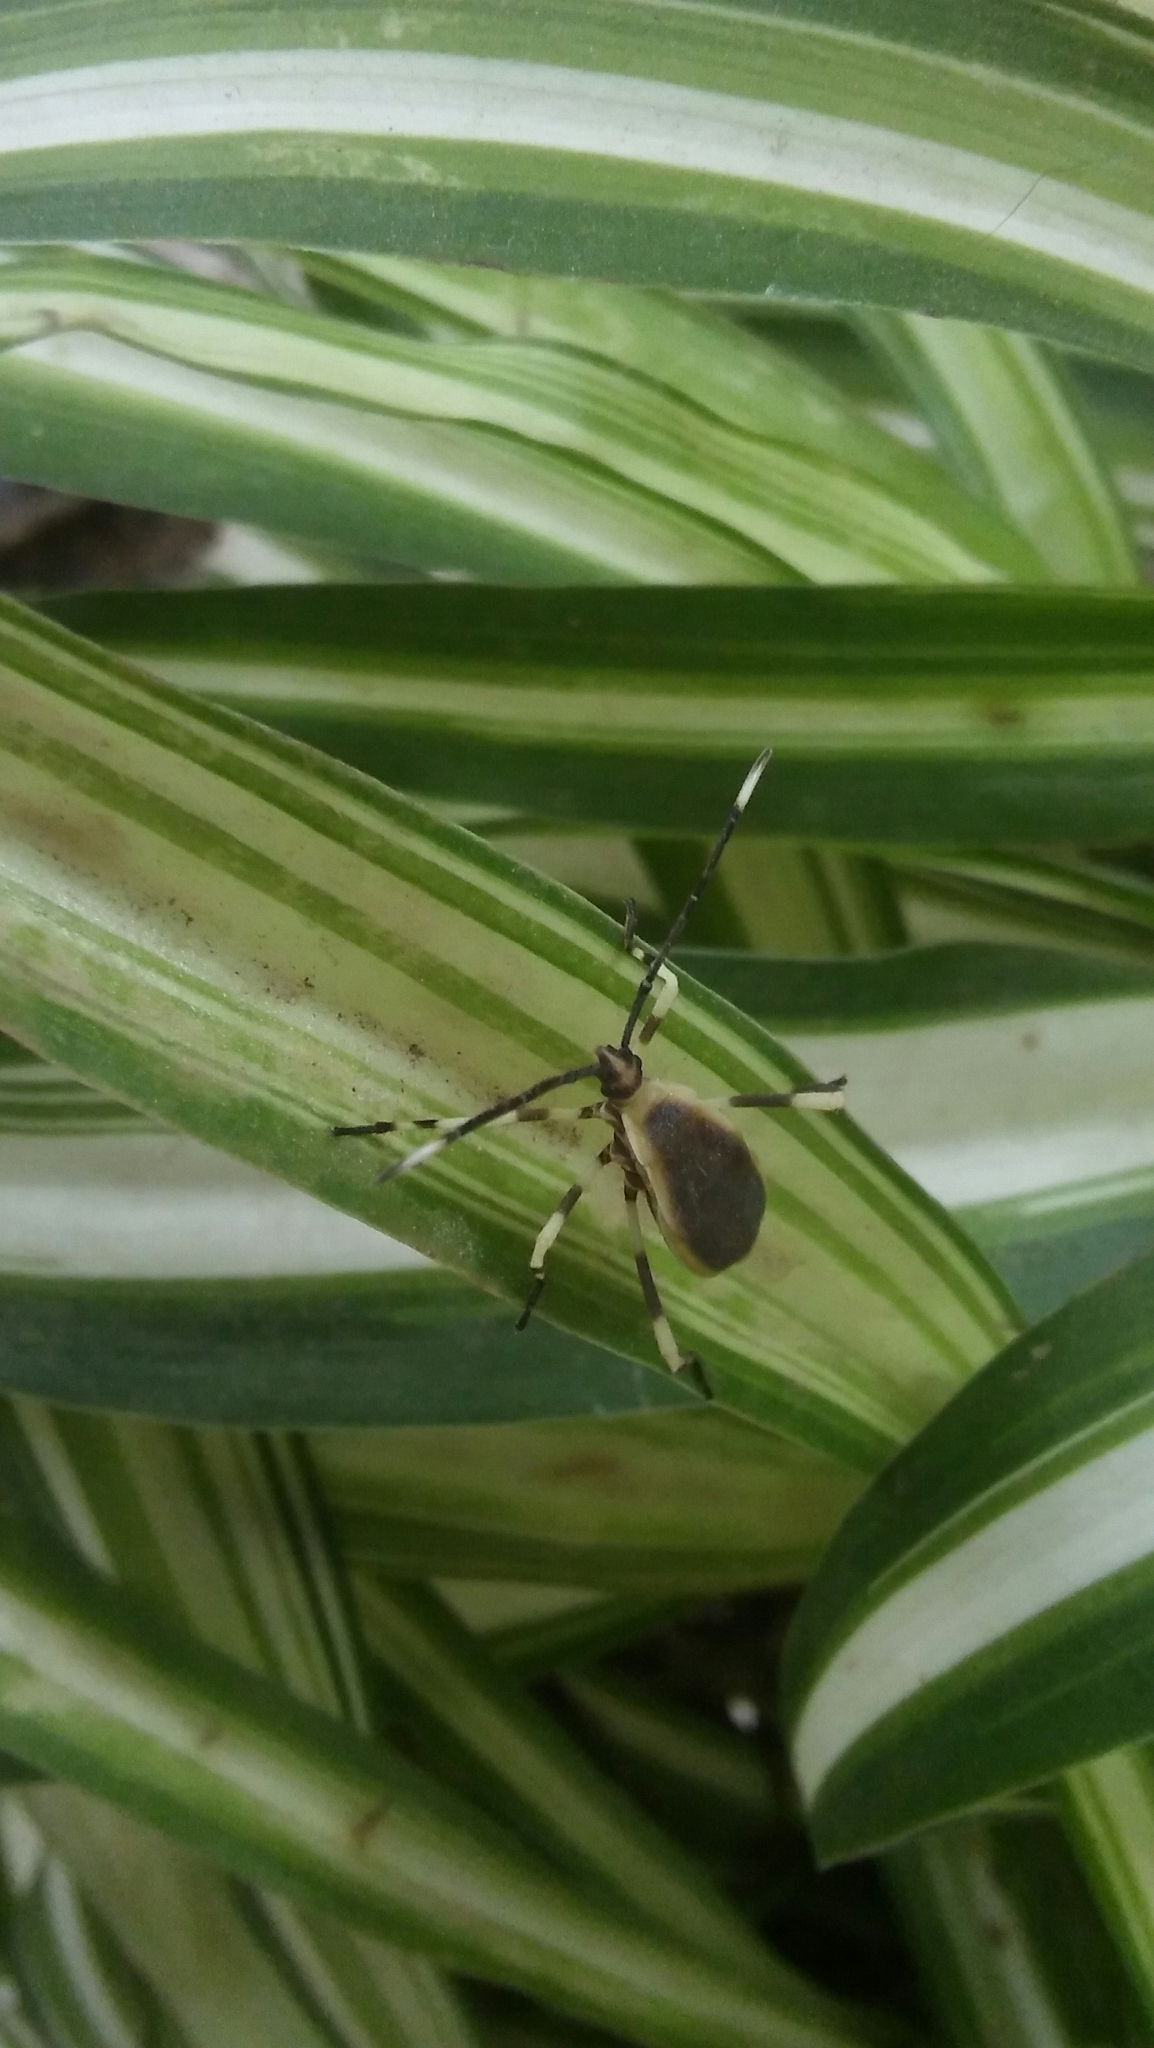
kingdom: Animalia
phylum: Arthropoda
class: Insecta
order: Hemiptera
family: Coreidae
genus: Holhymenia
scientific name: Holhymenia histrio
